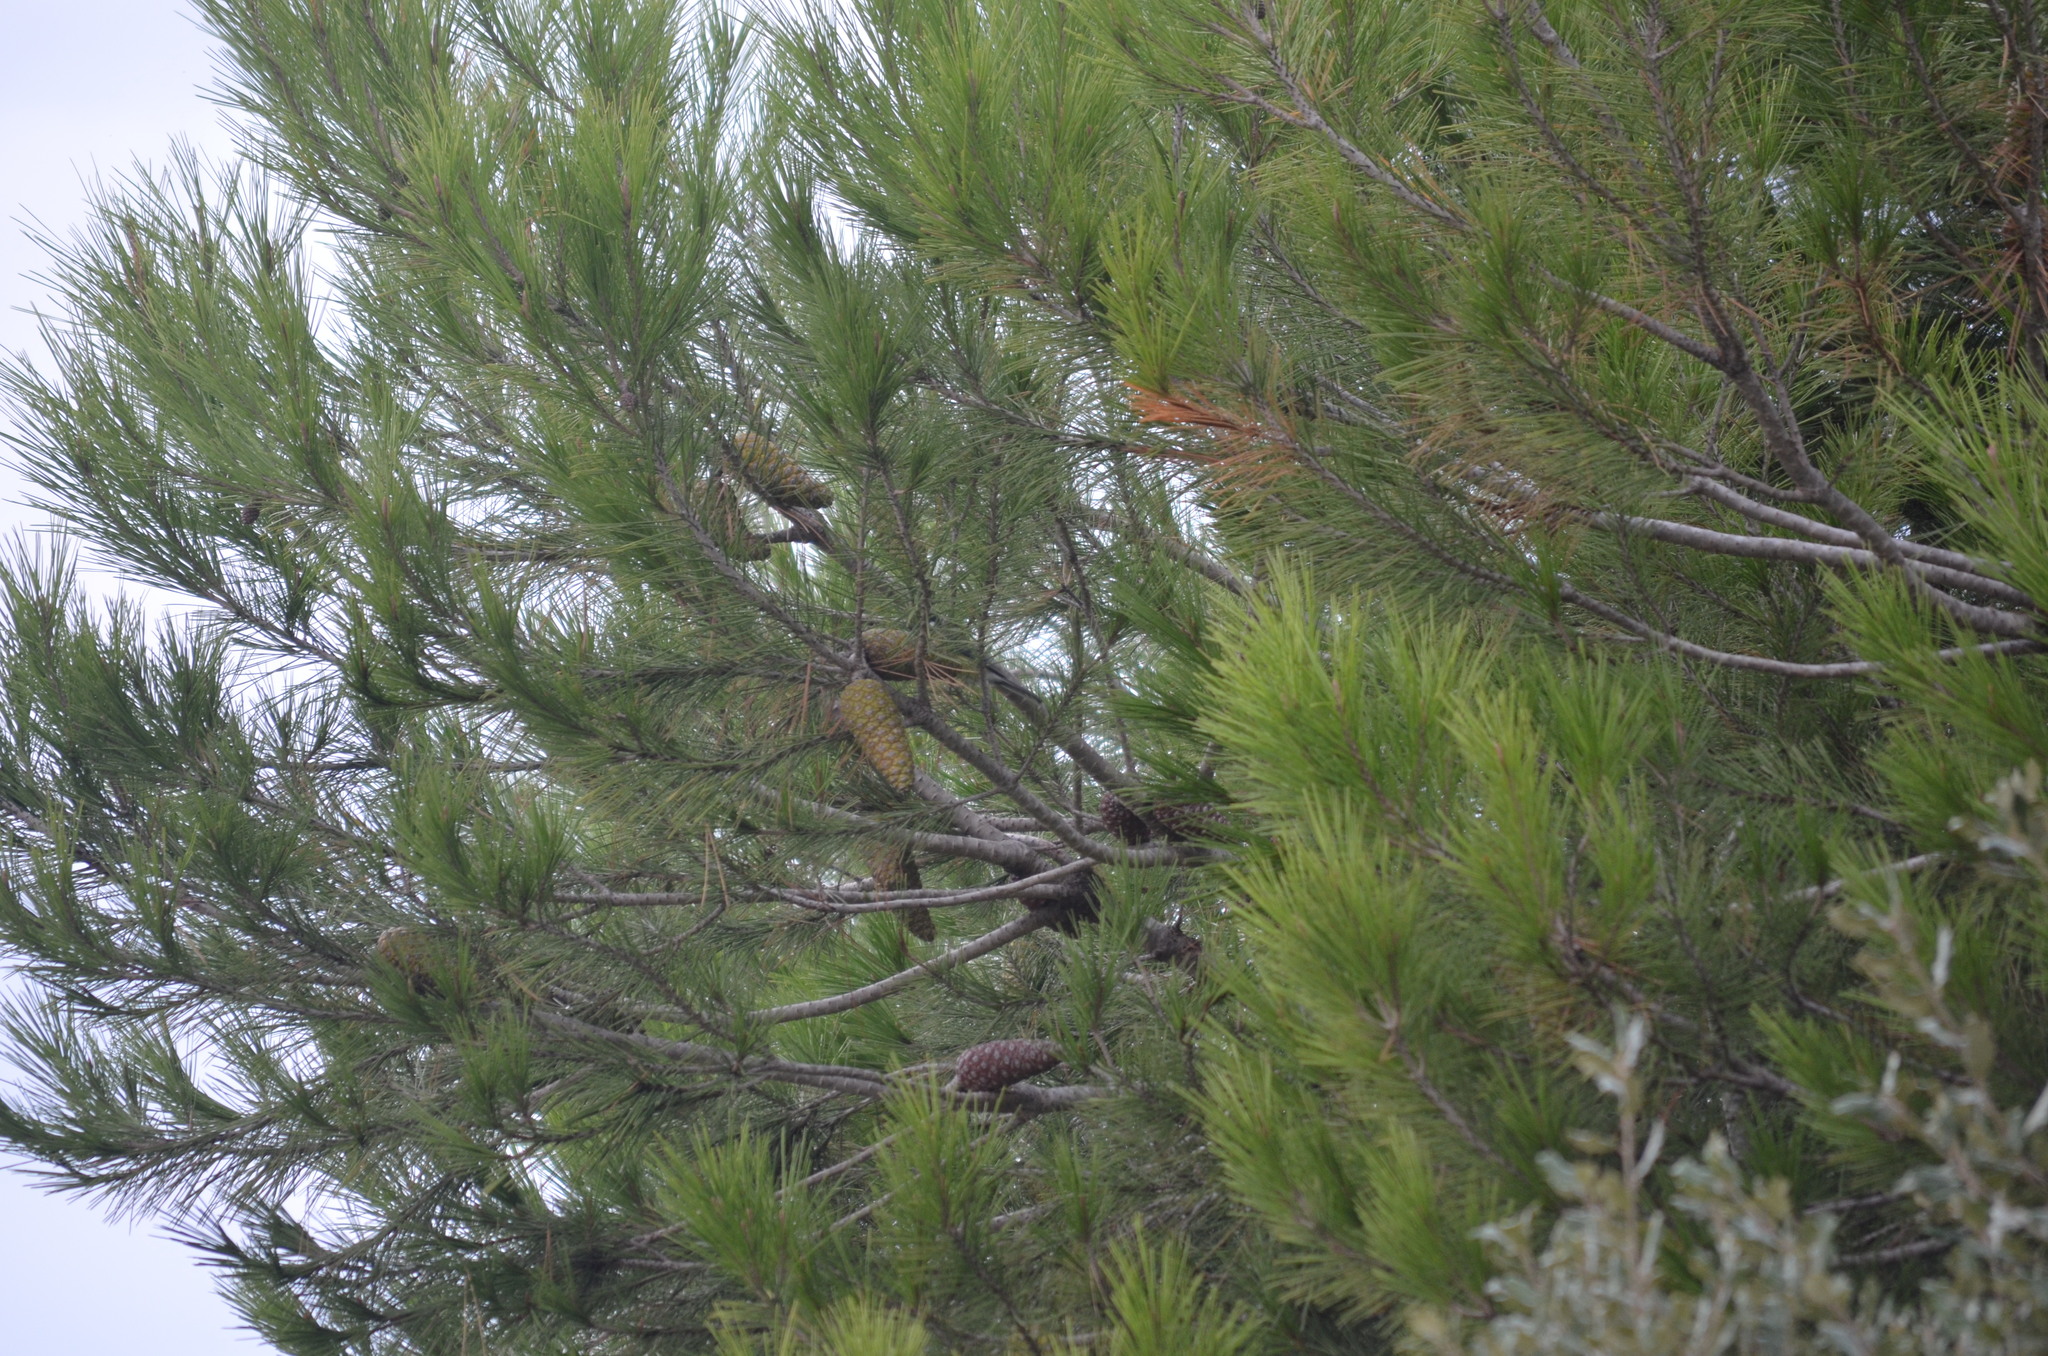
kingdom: Plantae
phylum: Tracheophyta
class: Pinopsida
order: Pinales
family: Pinaceae
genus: Pinus
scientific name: Pinus halepensis
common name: Aleppo pine
